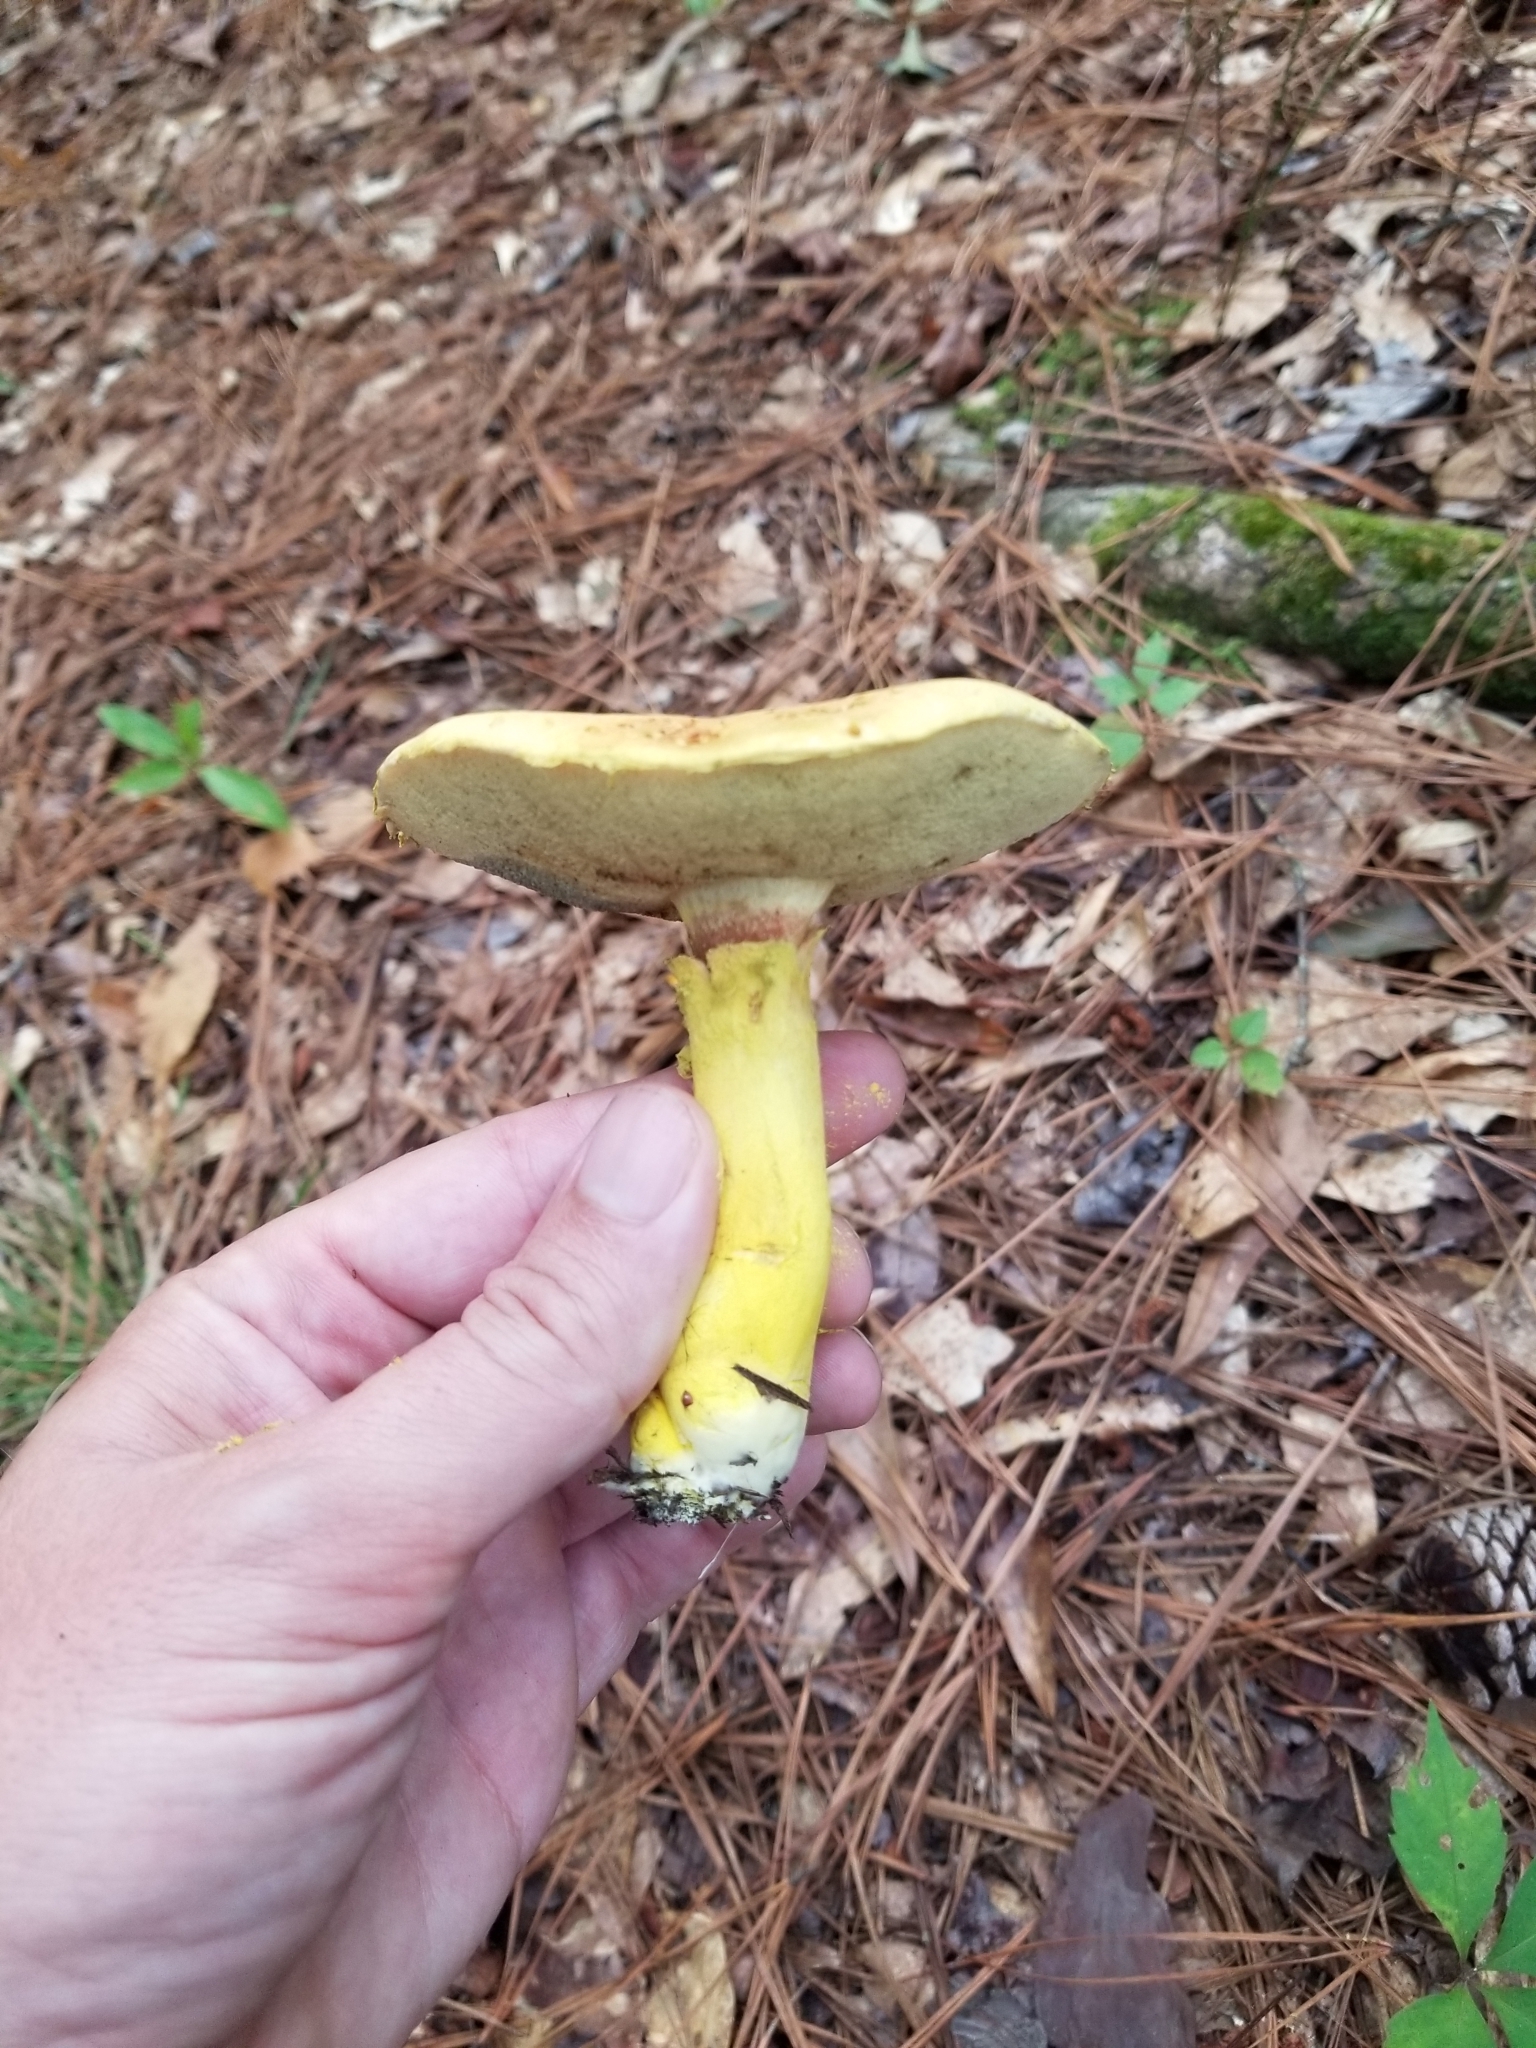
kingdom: Fungi
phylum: Basidiomycota
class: Agaricomycetes
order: Boletales
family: Boletaceae
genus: Pulveroboletus
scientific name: Pulveroboletus ravenelii
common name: Powdery sulfur bolete
